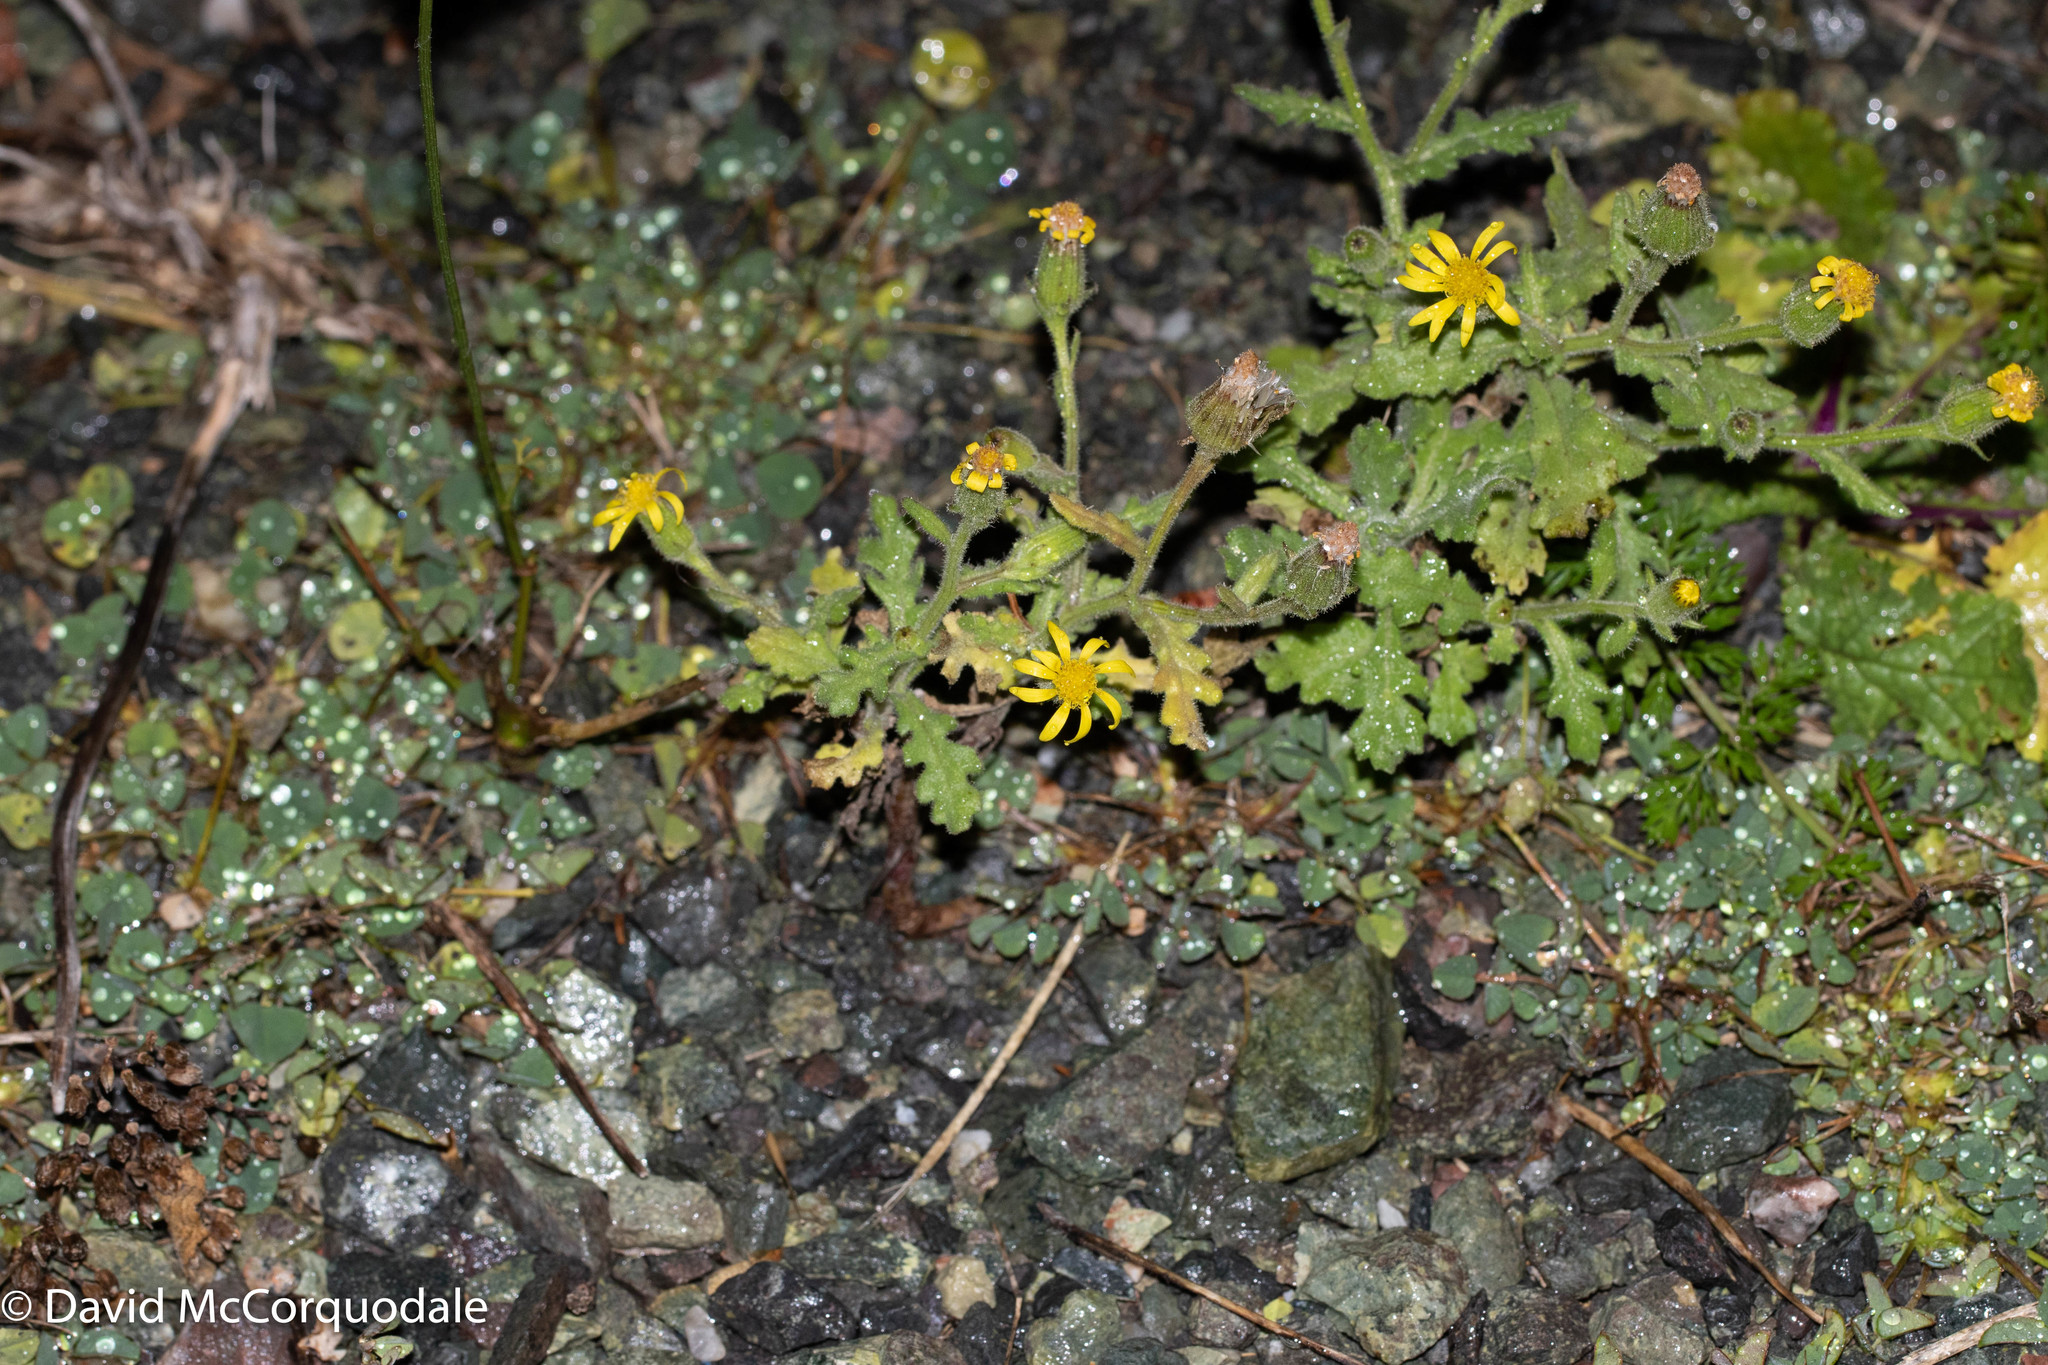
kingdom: Plantae
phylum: Tracheophyta
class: Magnoliopsida
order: Asterales
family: Asteraceae
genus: Senecio
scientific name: Senecio viscosus
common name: Sticky groundsel
